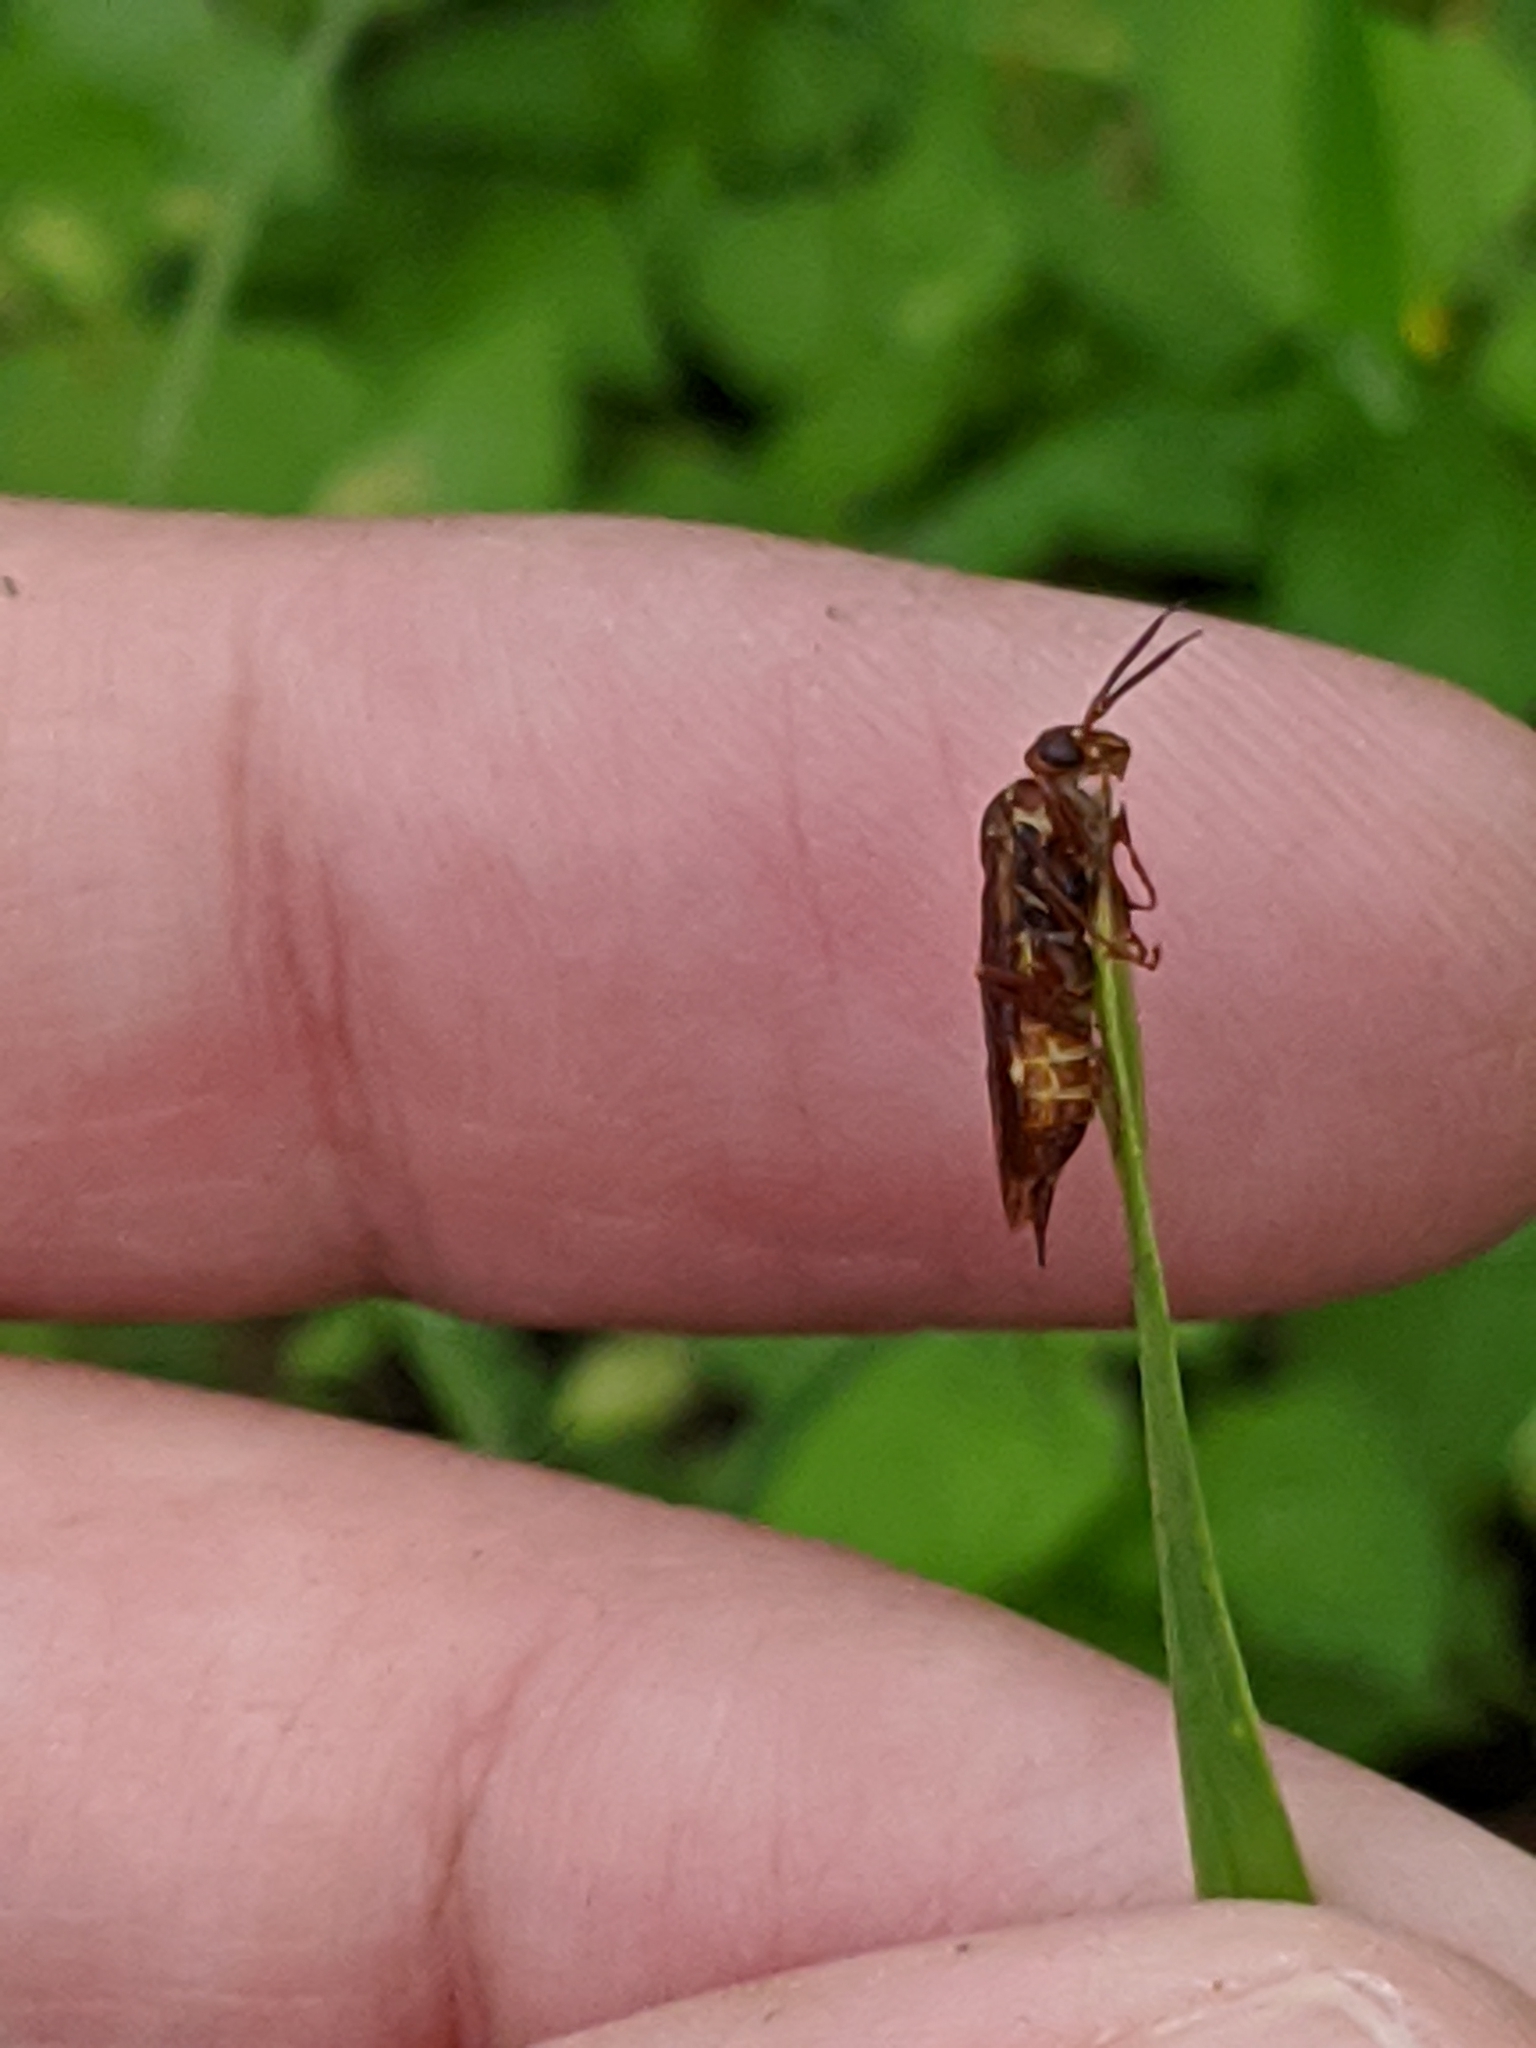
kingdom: Animalia
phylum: Arthropoda
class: Insecta
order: Hymenoptera
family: Xyelidae
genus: Macroxyela
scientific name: Macroxyela ferruginea
